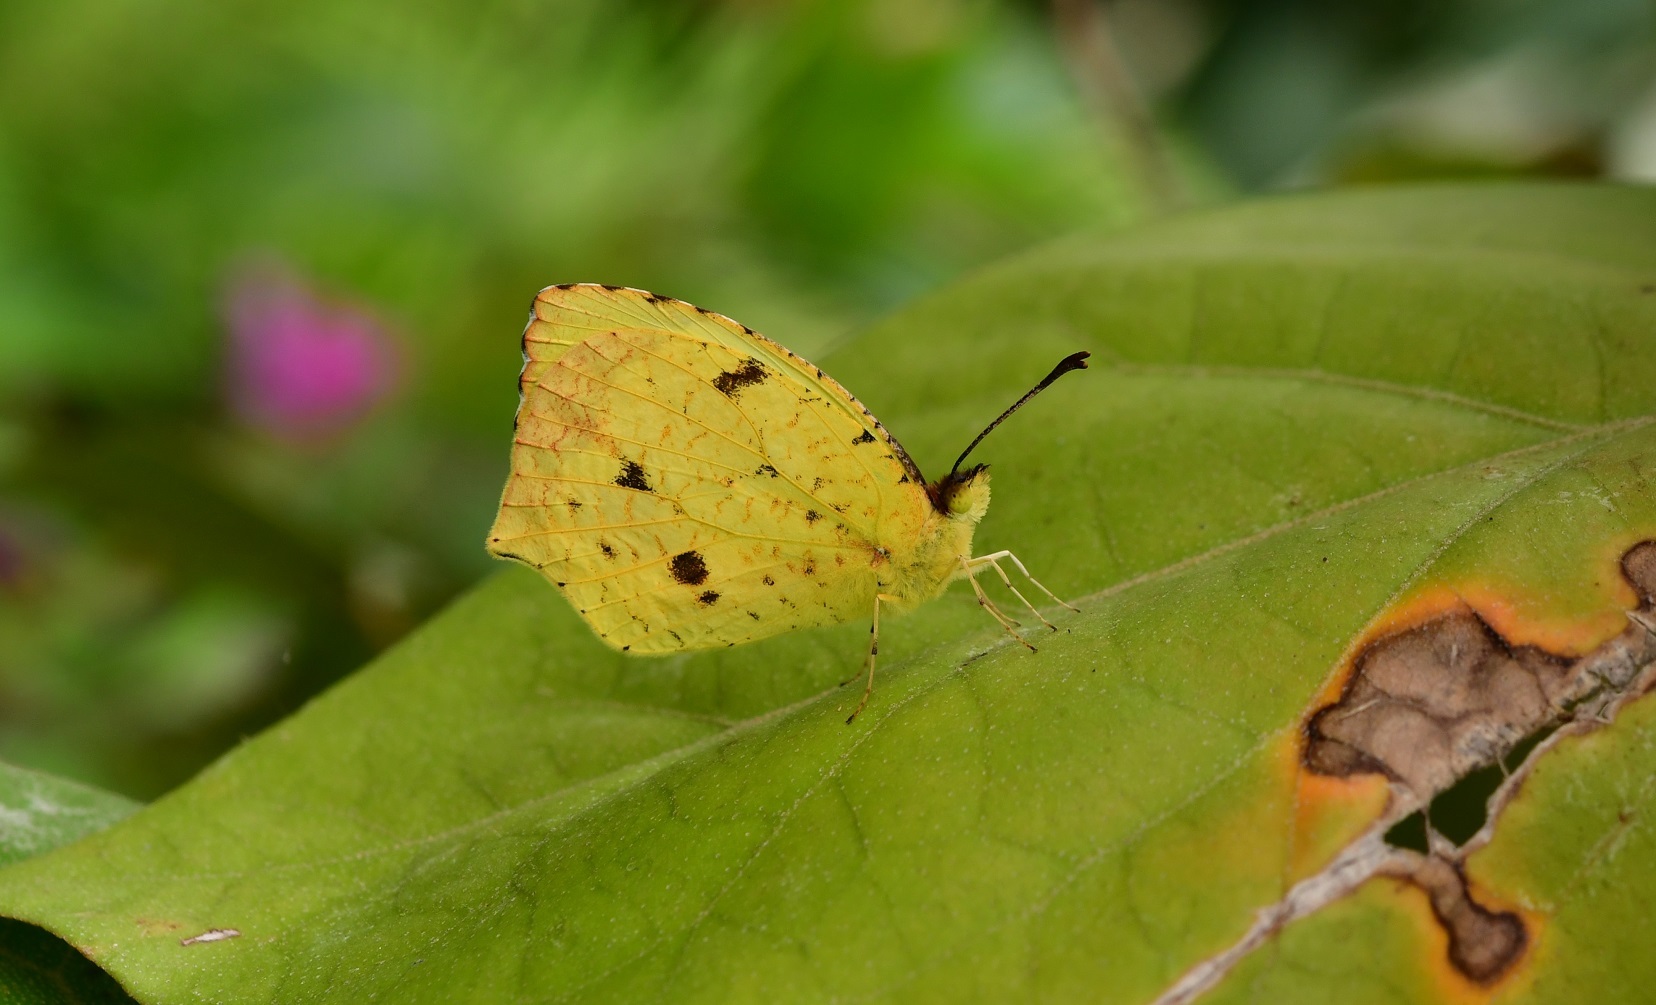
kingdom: Animalia
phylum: Arthropoda
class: Insecta
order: Lepidoptera
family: Pieridae
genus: Abaeis
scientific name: Abaeis salome
